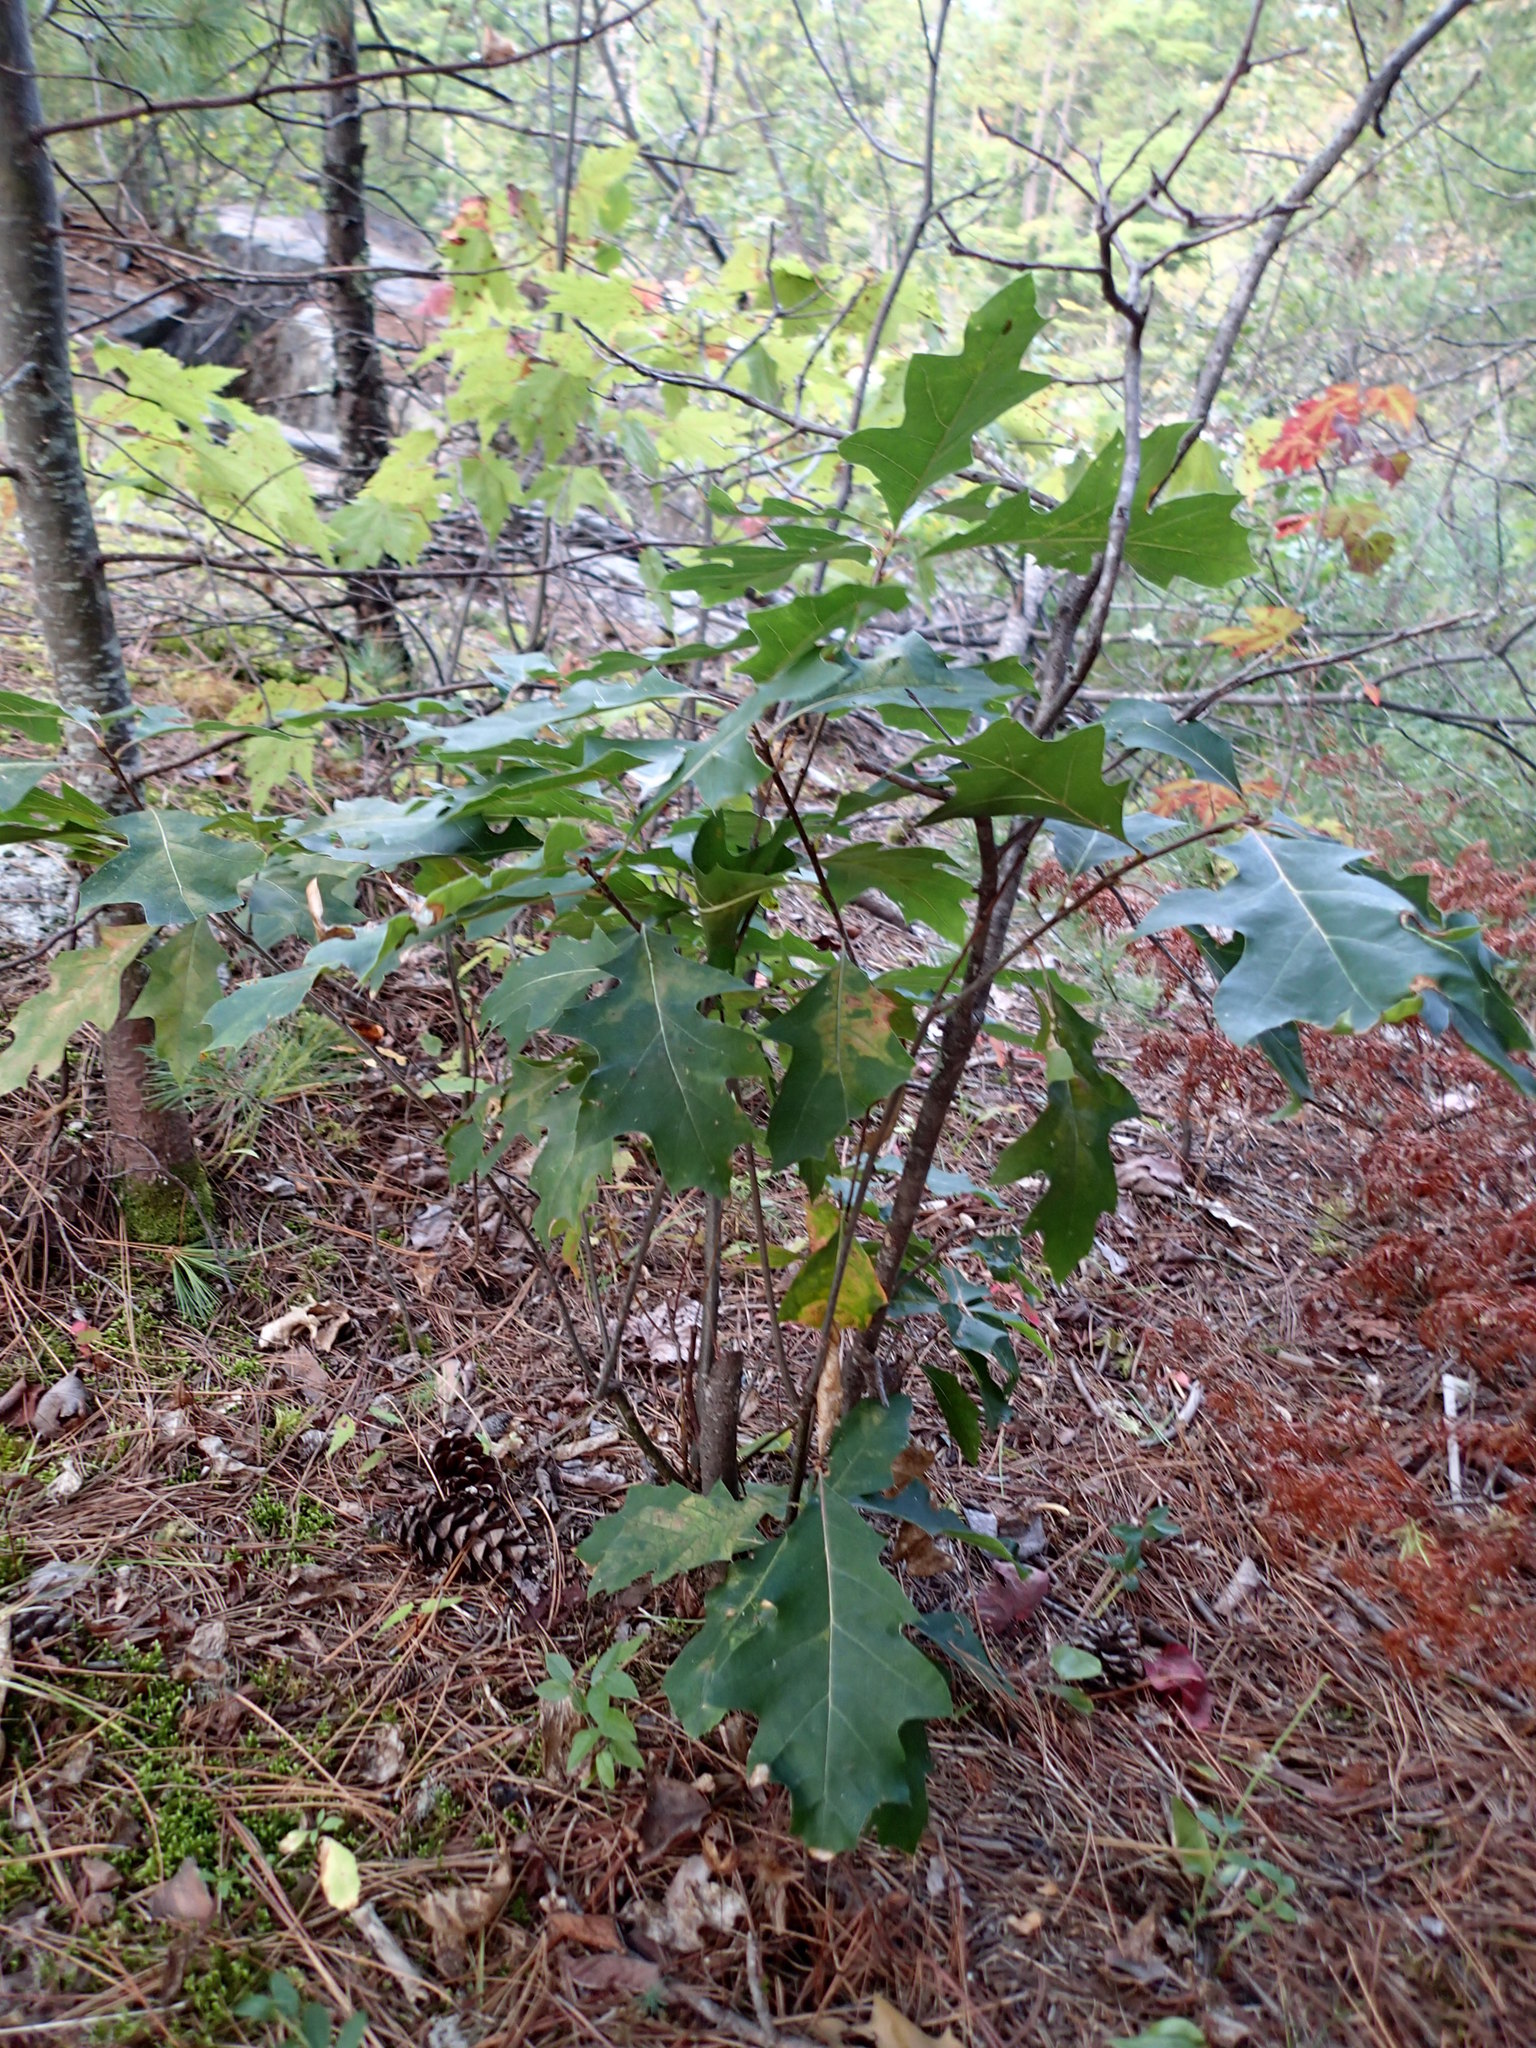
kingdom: Plantae
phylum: Tracheophyta
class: Magnoliopsida
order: Fagales
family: Fagaceae
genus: Quercus
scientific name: Quercus ellipsoidalis
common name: Hill's oak
